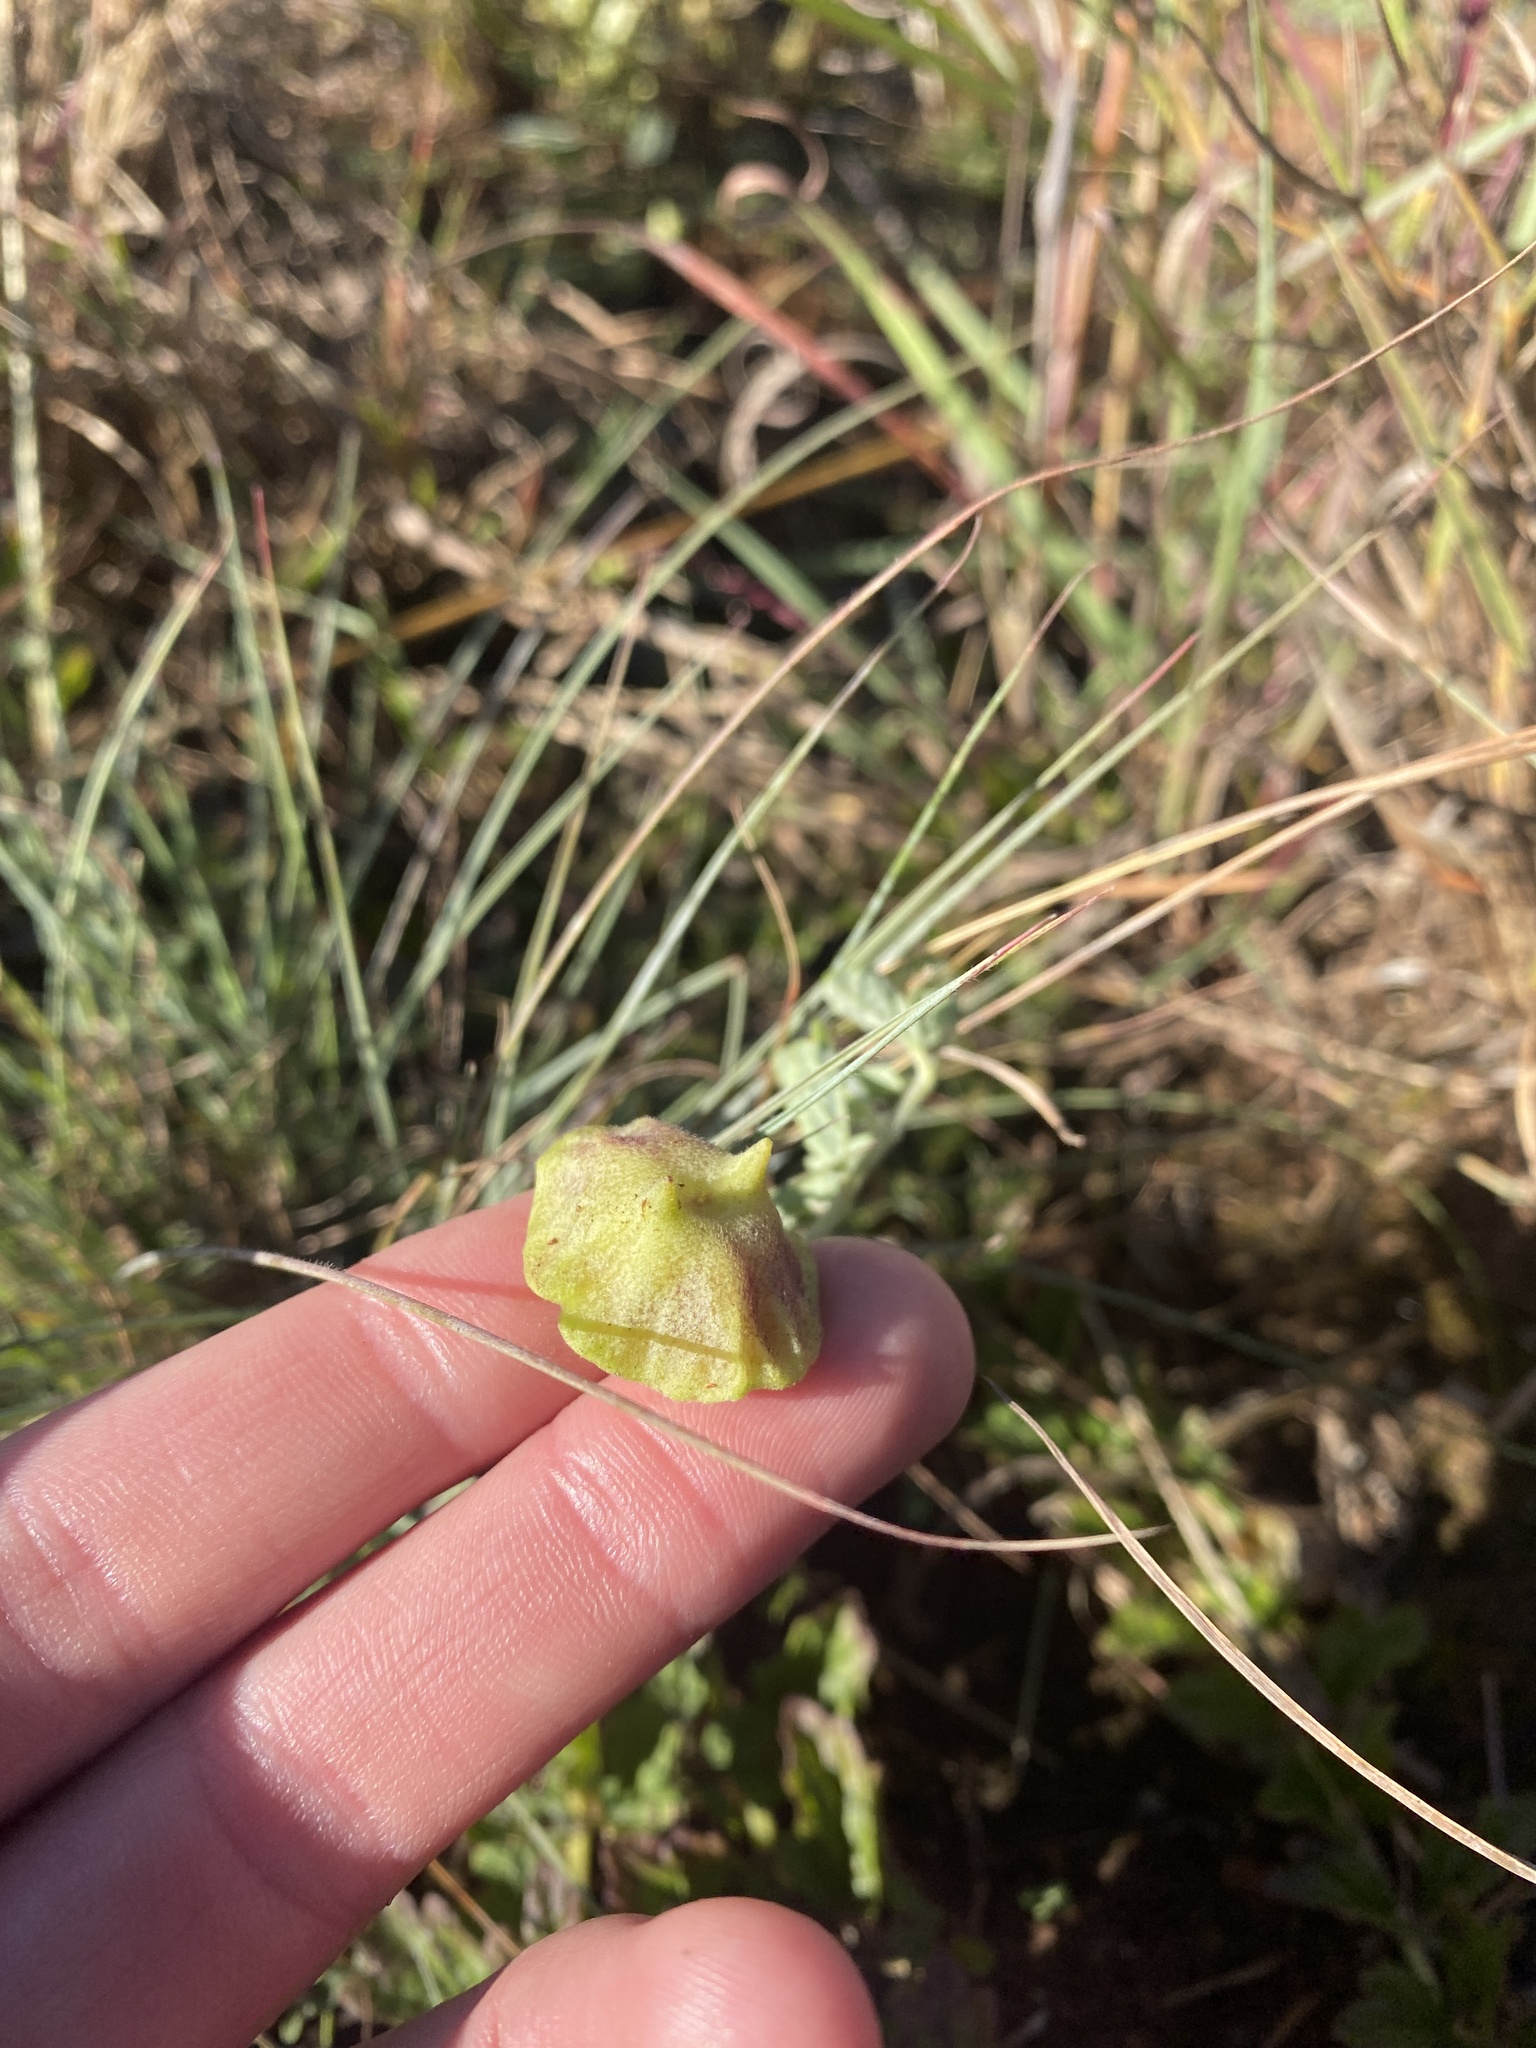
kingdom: Plantae
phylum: Tracheophyta
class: Magnoliopsida
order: Lamiales
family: Pedaliaceae
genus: Dicerocaryum
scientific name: Dicerocaryum eriocarpum
